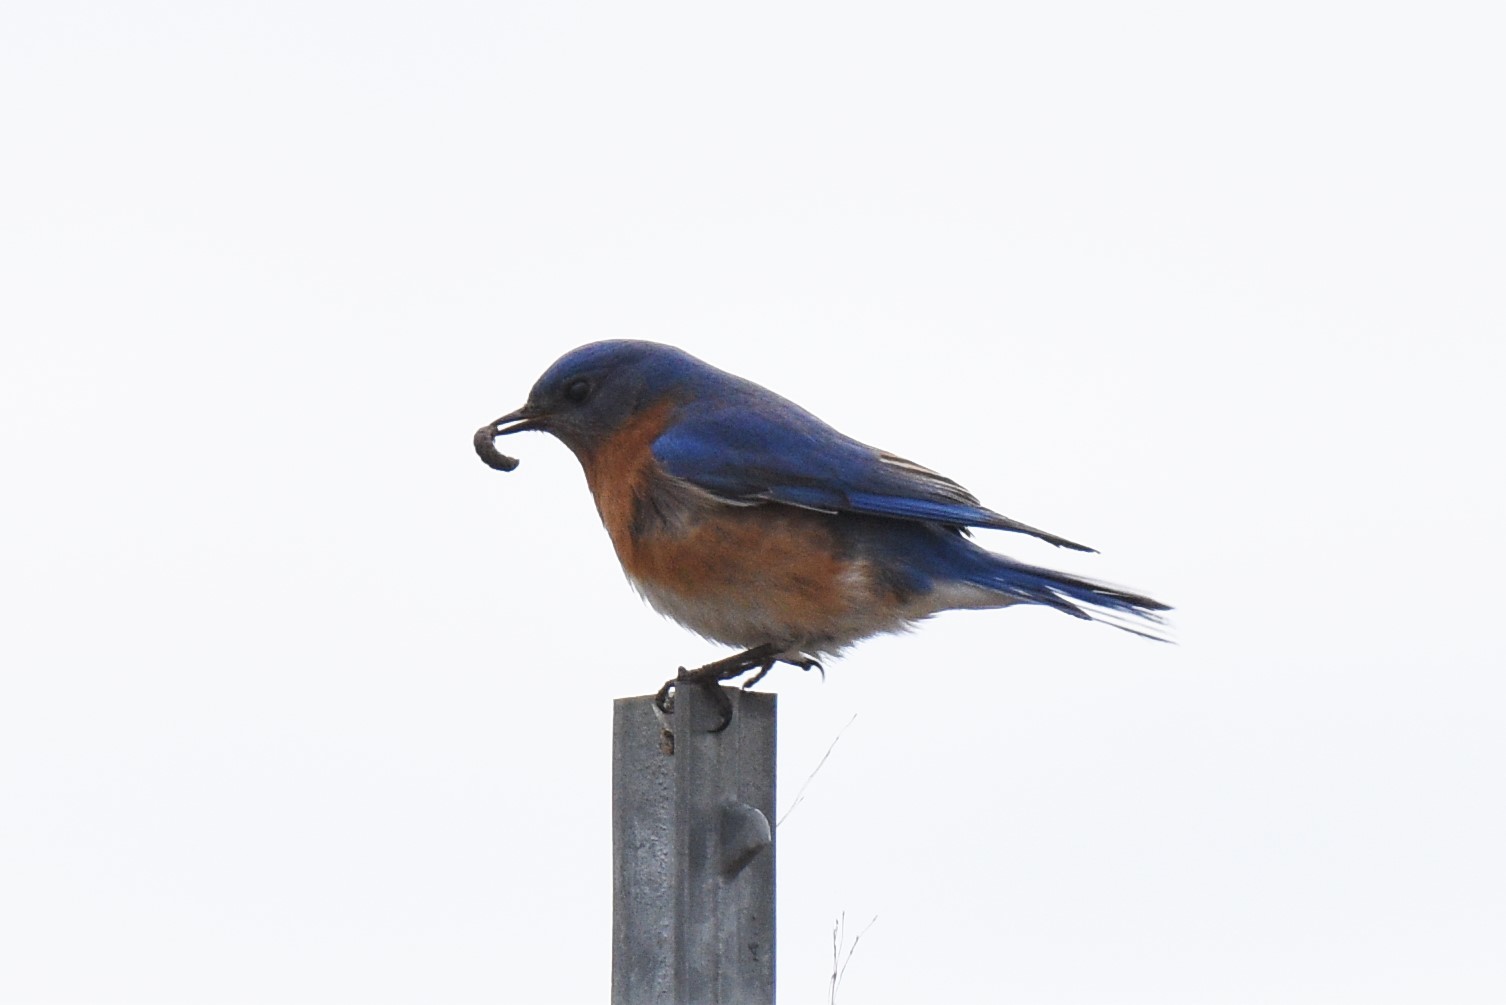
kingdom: Animalia
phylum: Chordata
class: Aves
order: Passeriformes
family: Turdidae
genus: Sialia
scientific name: Sialia sialis
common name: Eastern bluebird
